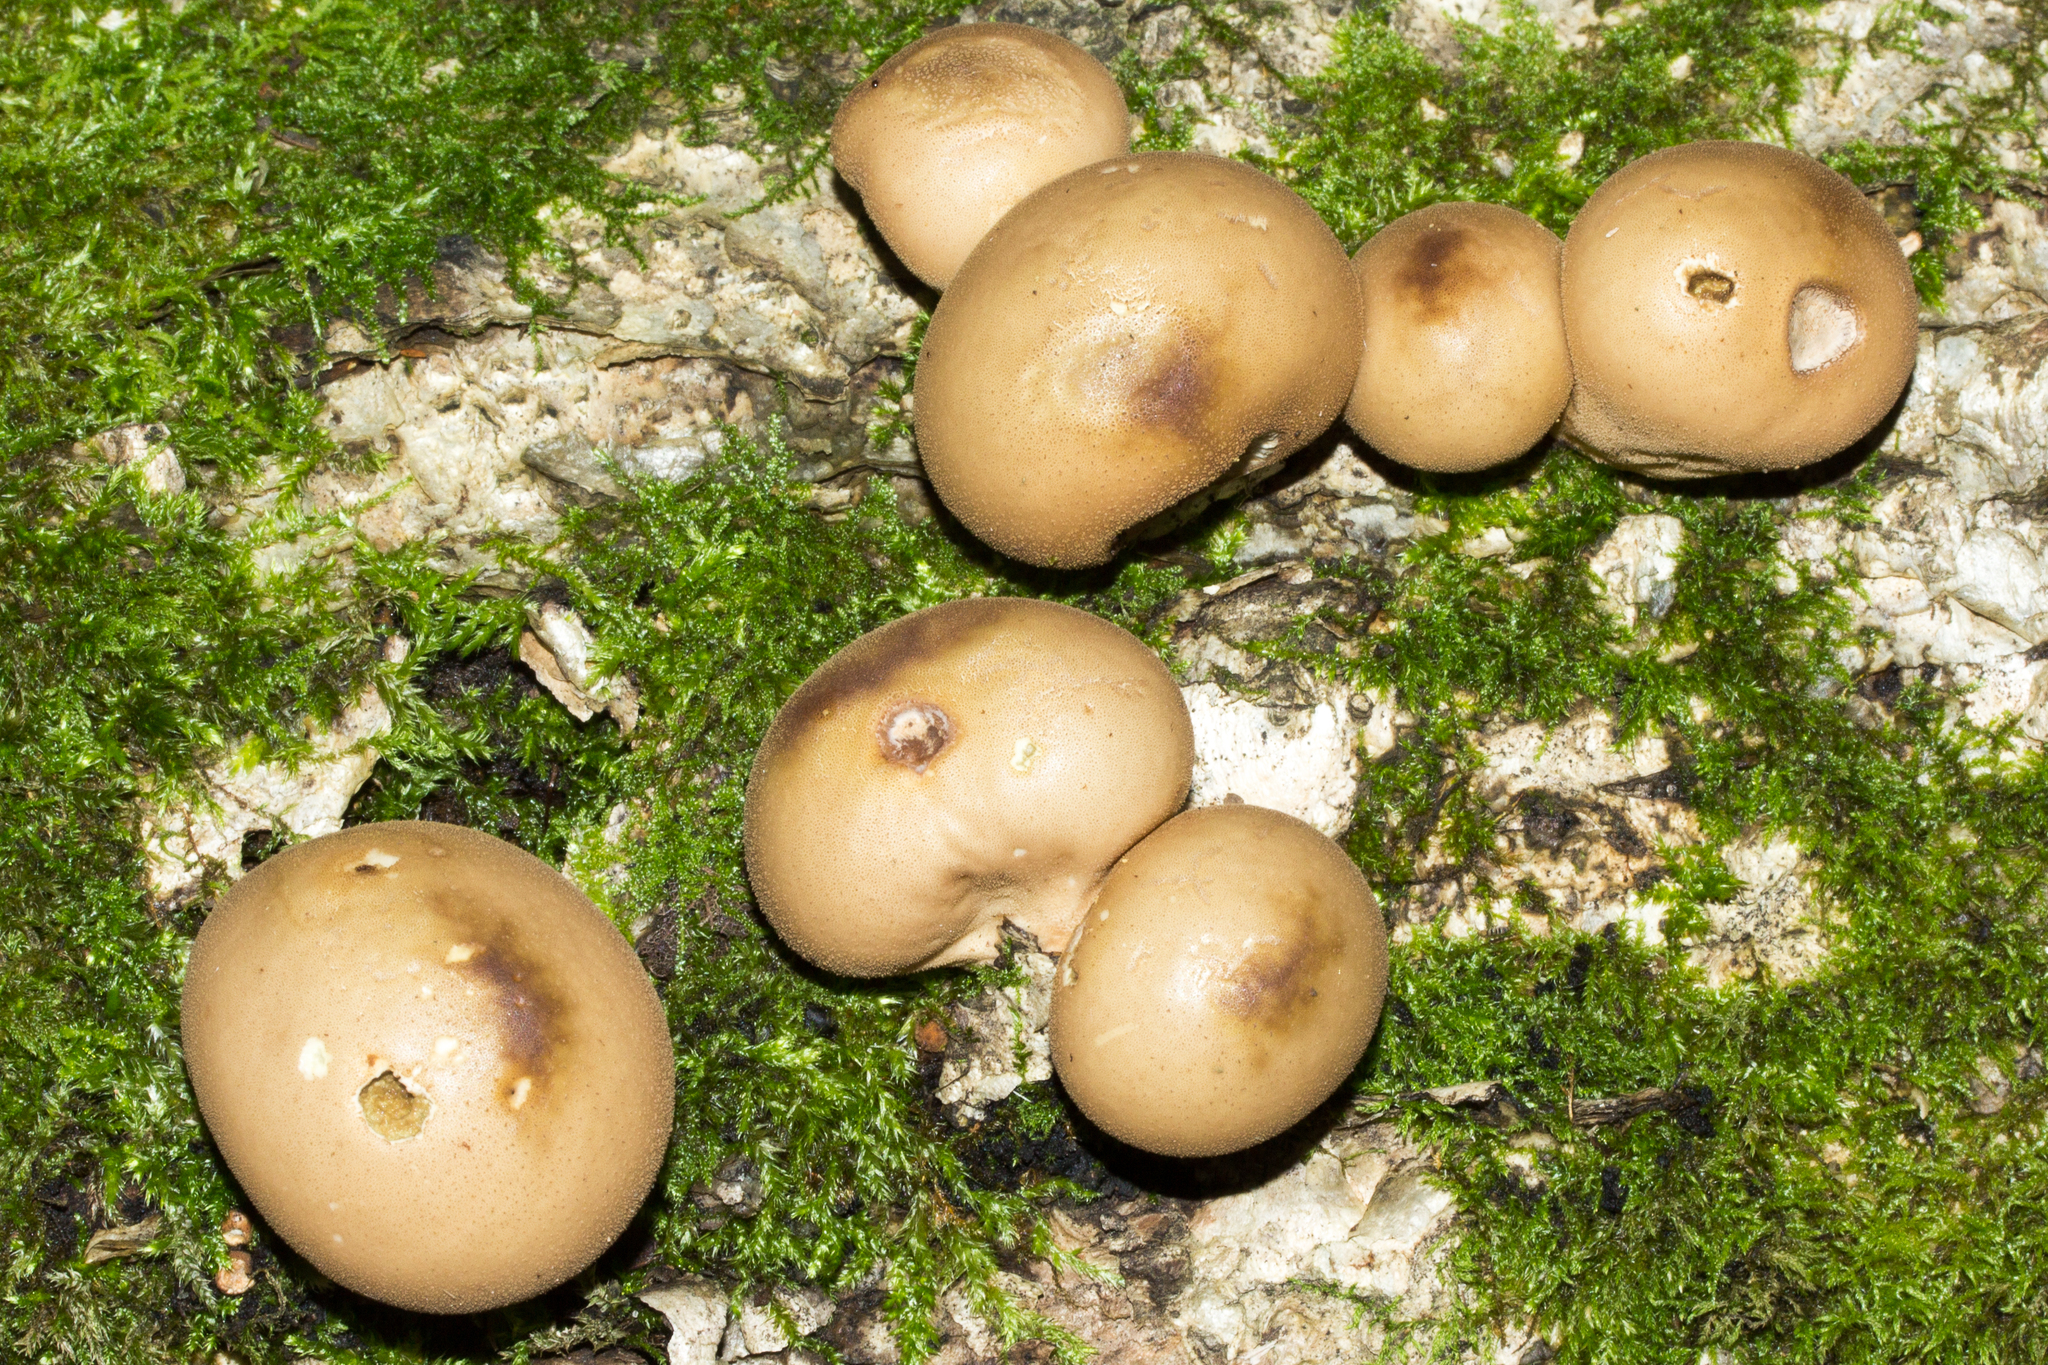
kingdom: Fungi
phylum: Basidiomycota
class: Agaricomycetes
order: Agaricales
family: Lycoperdaceae
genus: Apioperdon
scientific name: Apioperdon pyriforme
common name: Pear-shaped puffball
